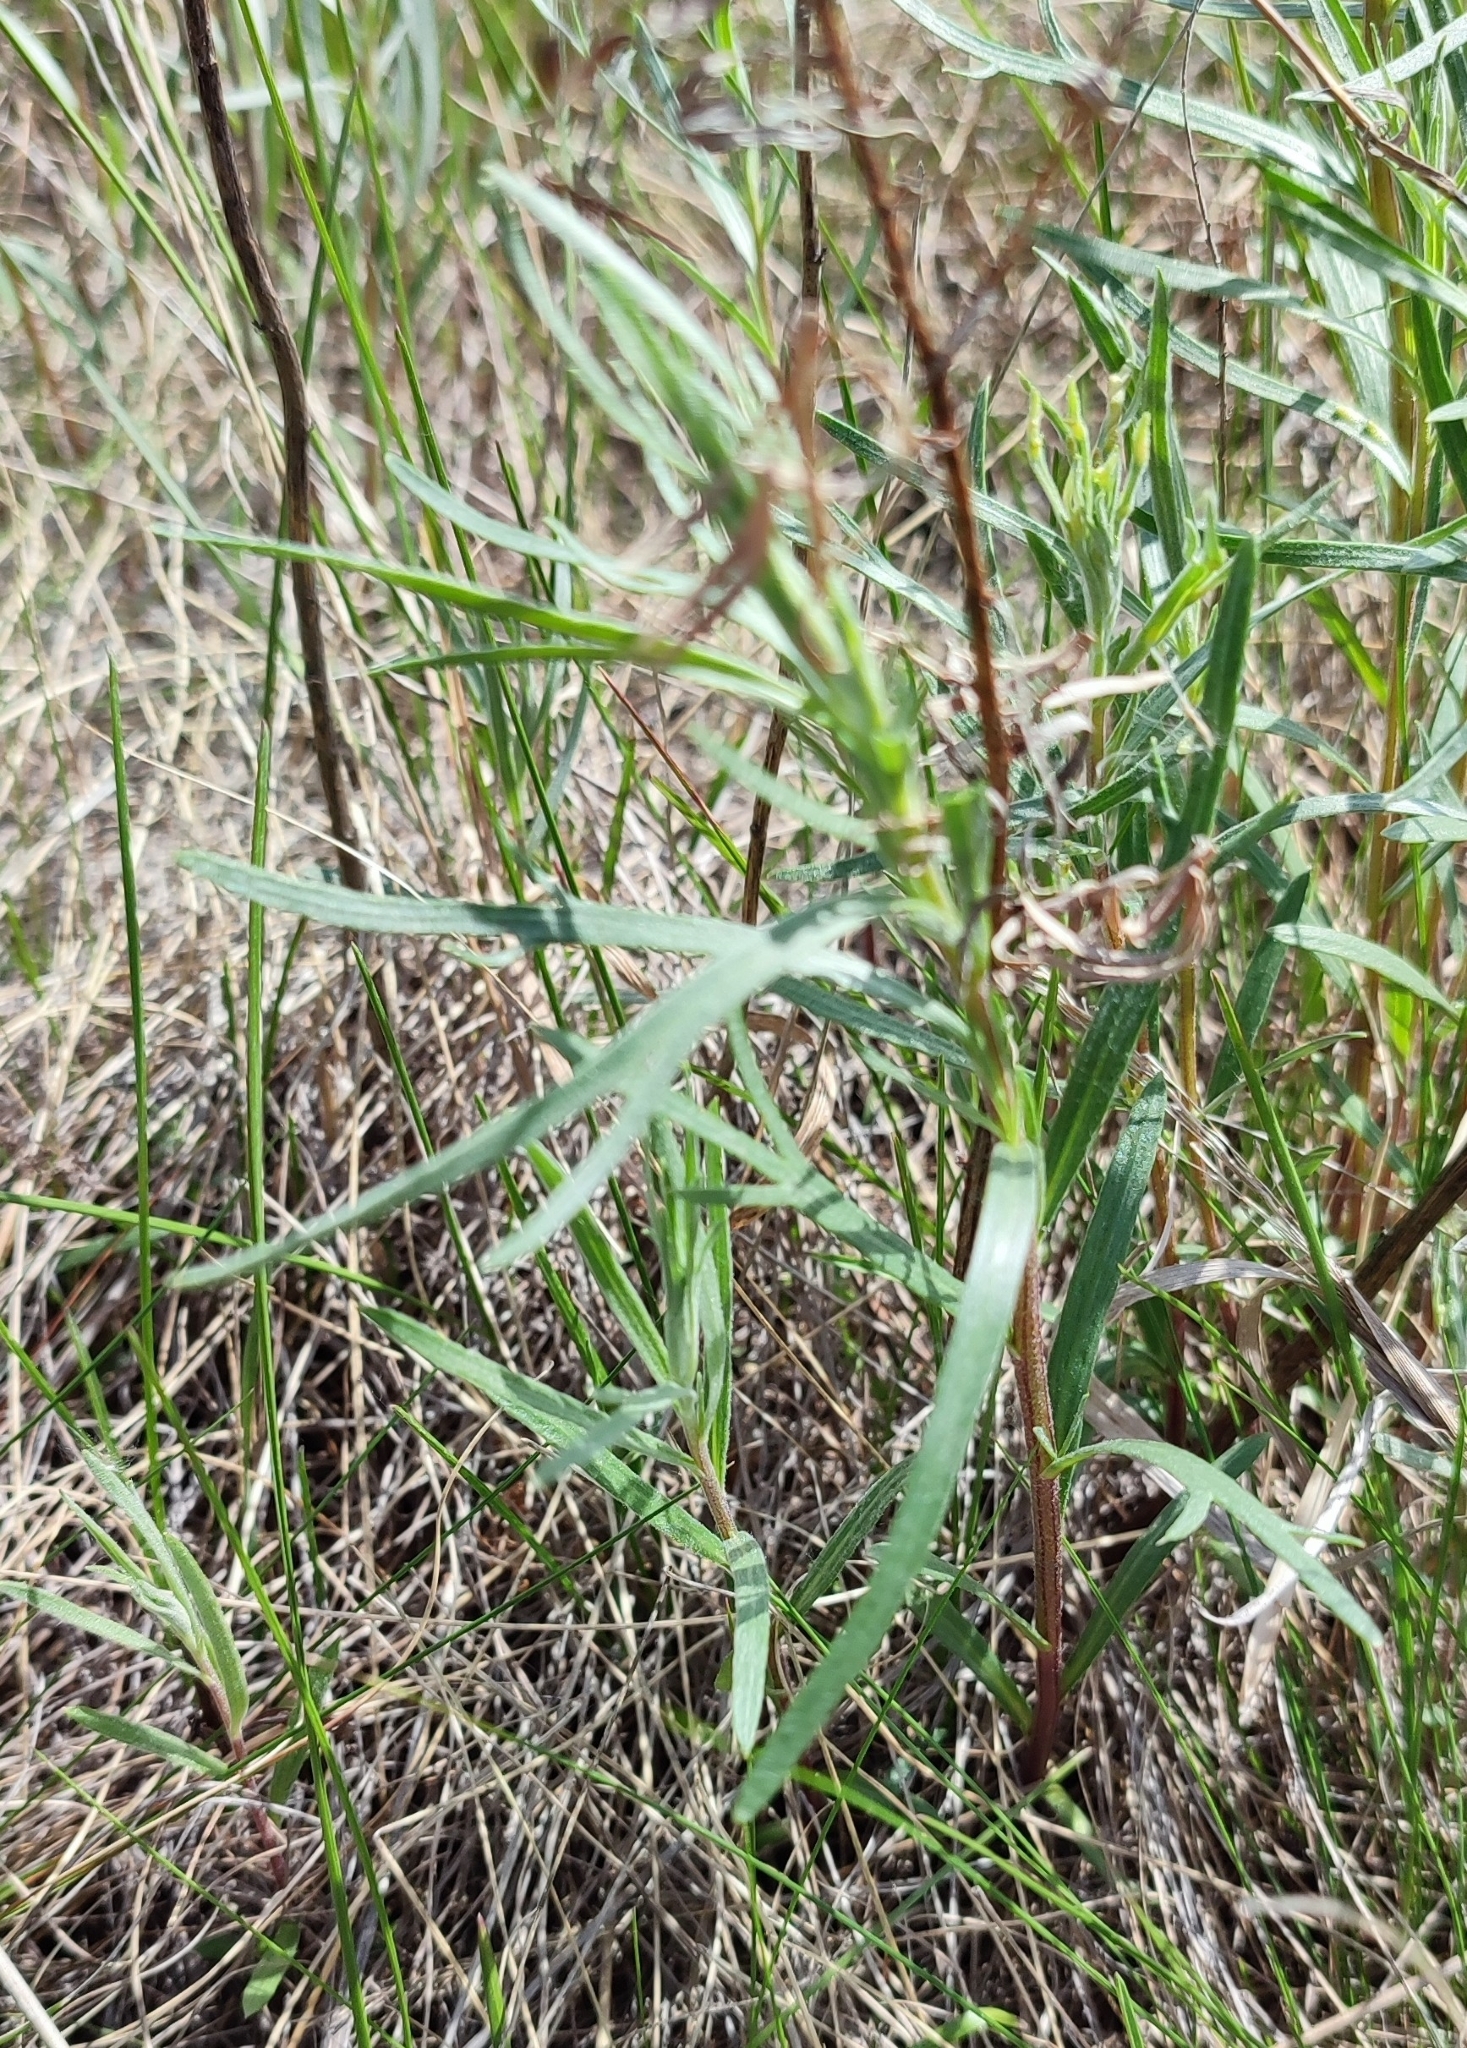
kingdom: Plantae
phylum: Tracheophyta
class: Magnoliopsida
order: Asterales
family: Asteraceae
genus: Artemisia
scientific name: Artemisia dracunculus
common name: Tarragon
